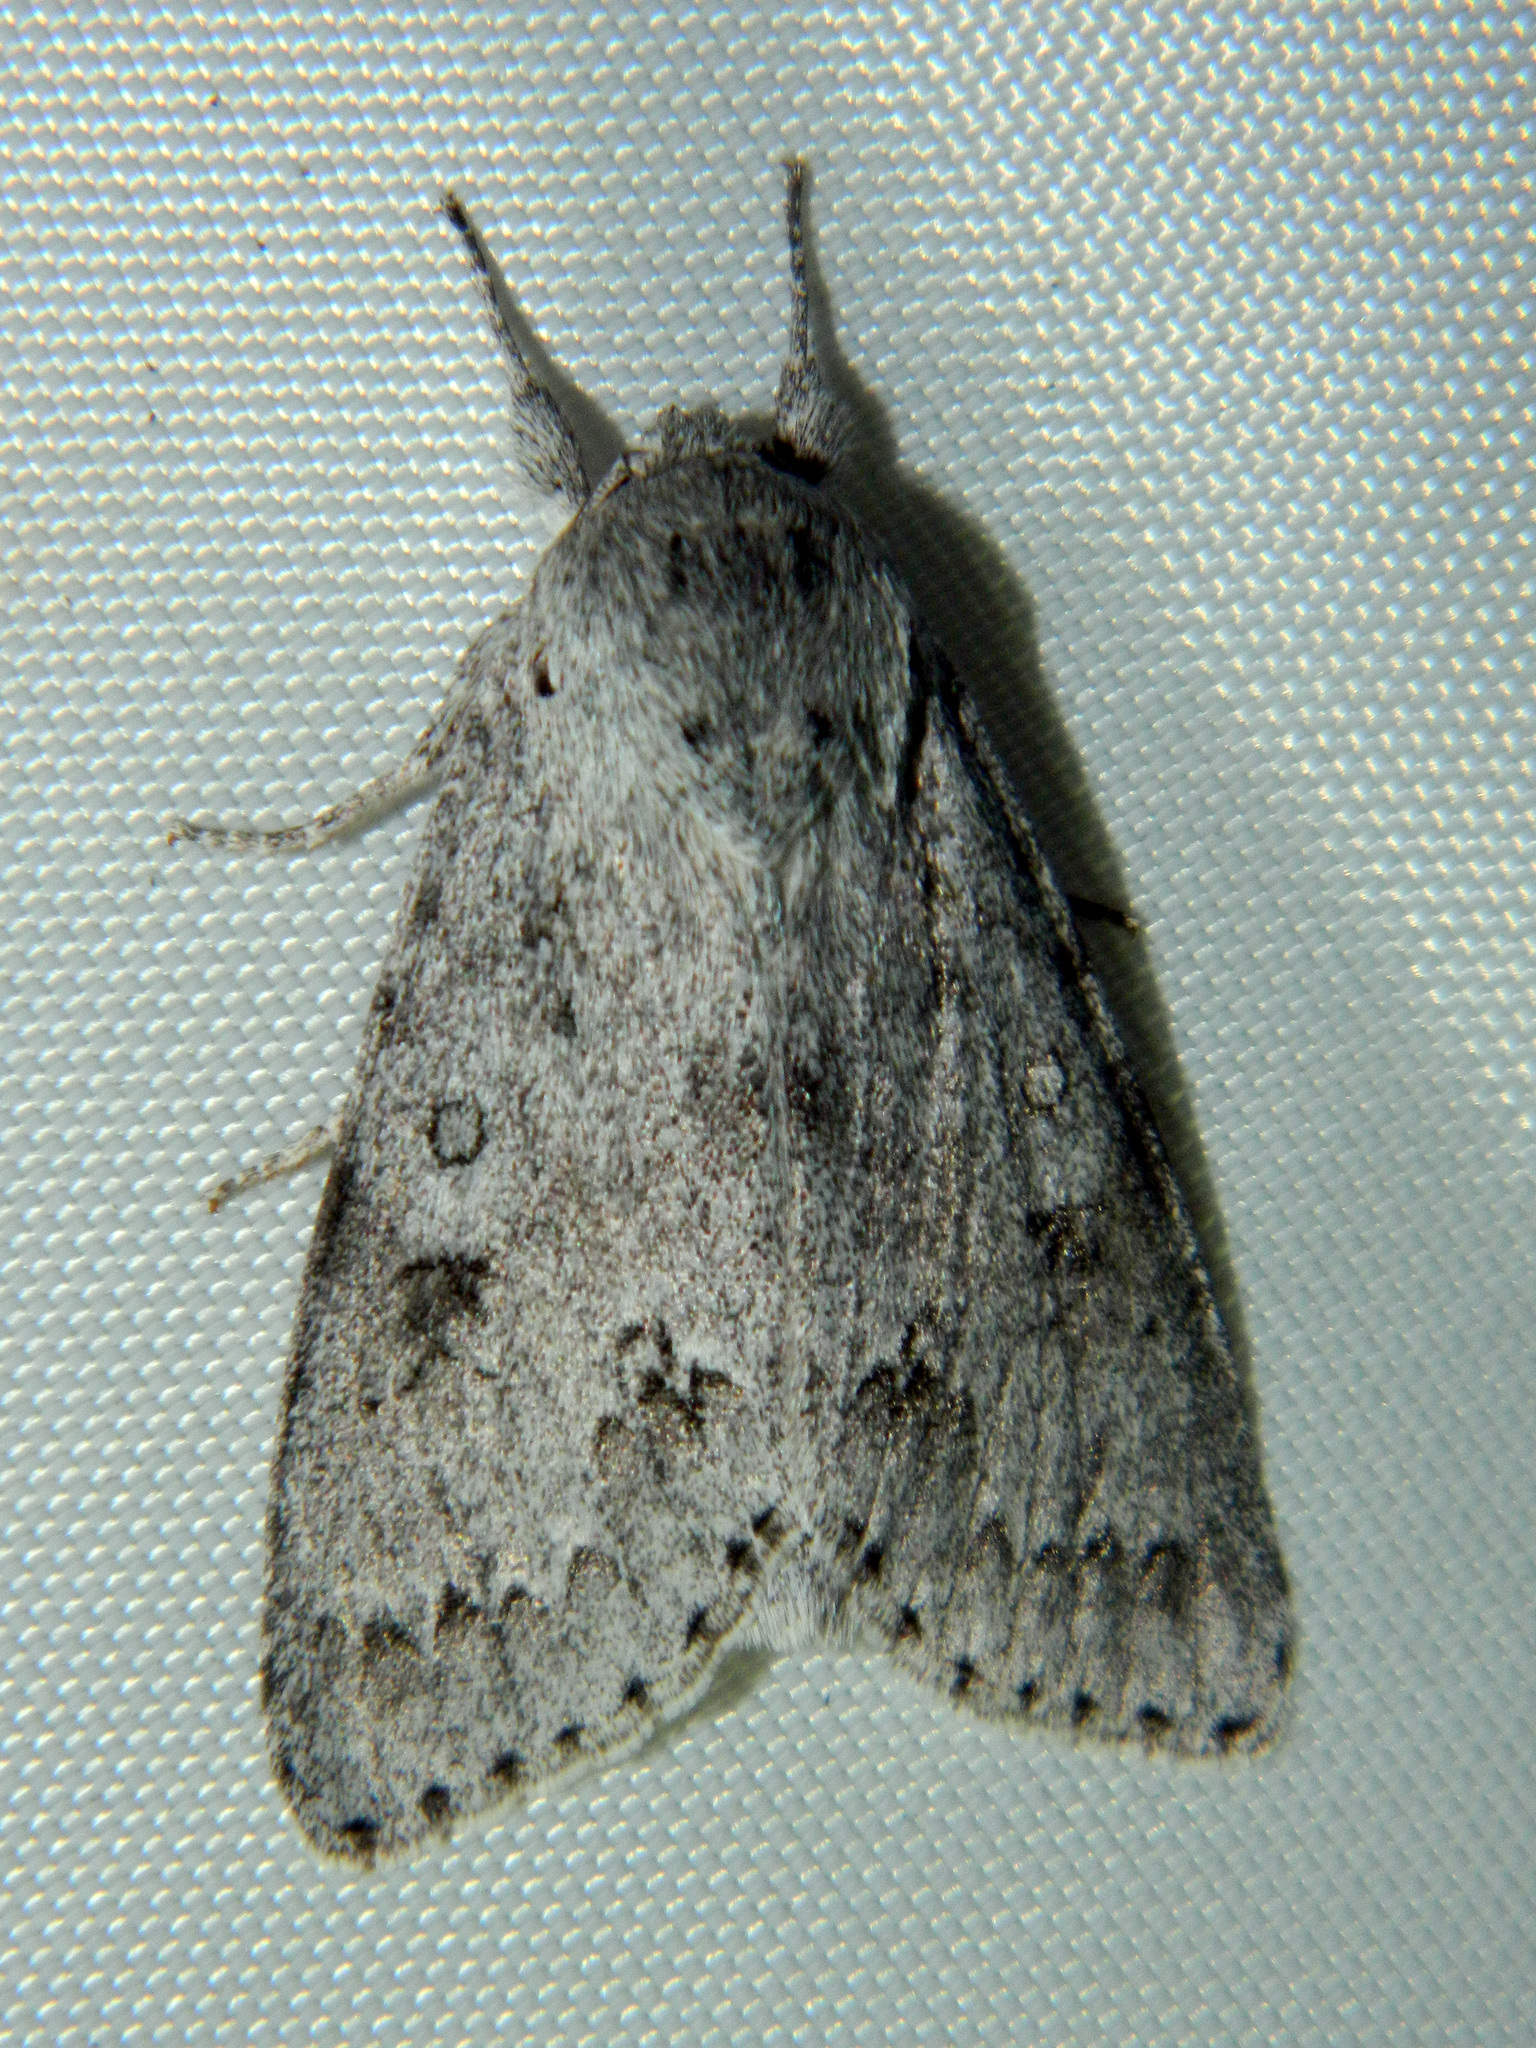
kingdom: Animalia
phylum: Arthropoda
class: Insecta
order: Lepidoptera
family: Noctuidae
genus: Acronicta
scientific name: Acronicta insita
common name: Large gray dagger
